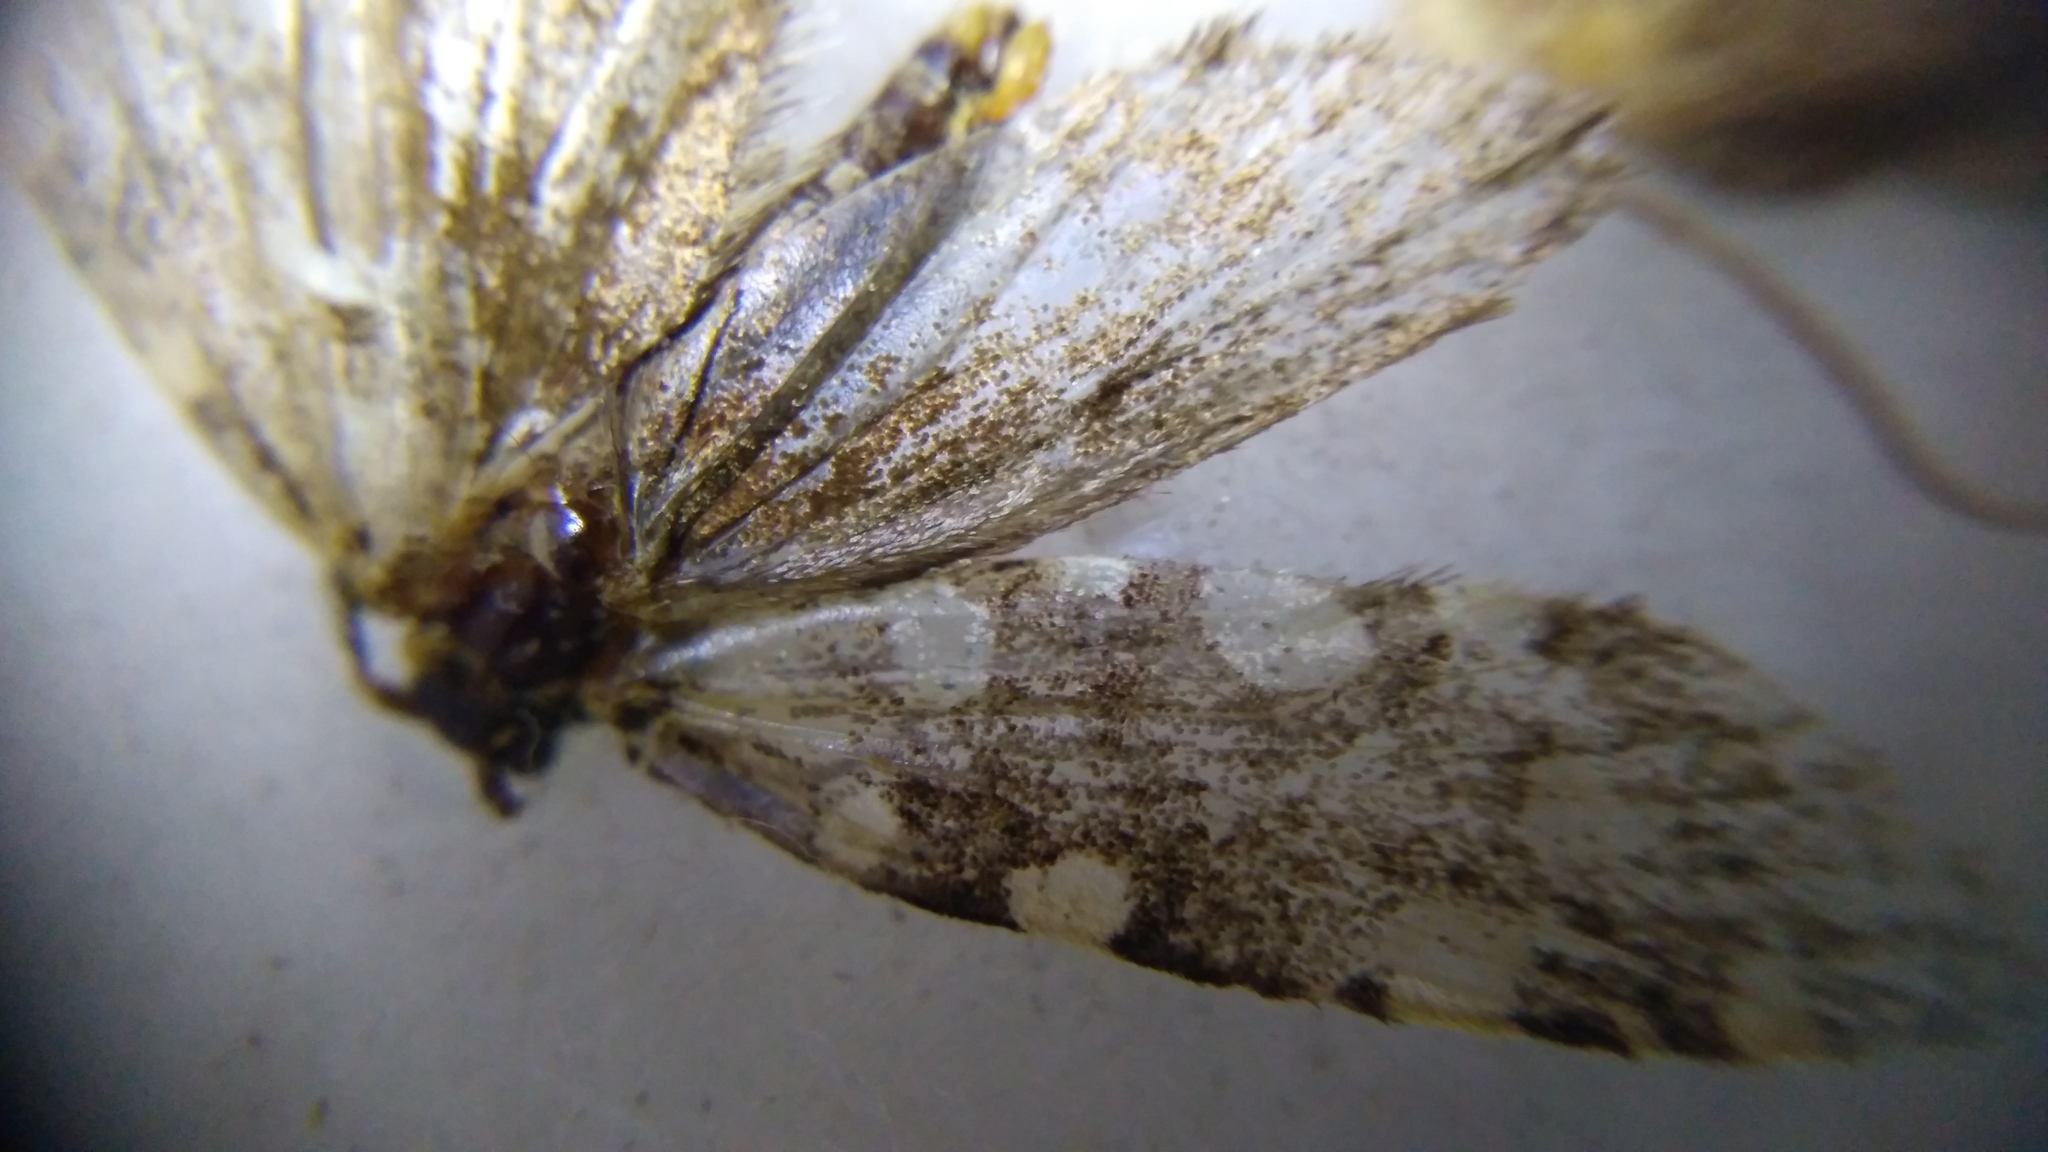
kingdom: Animalia
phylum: Arthropoda
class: Insecta
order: Lepidoptera
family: Tineidae
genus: Euplocamus
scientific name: Euplocamus anthracinalis
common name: Black clothes
